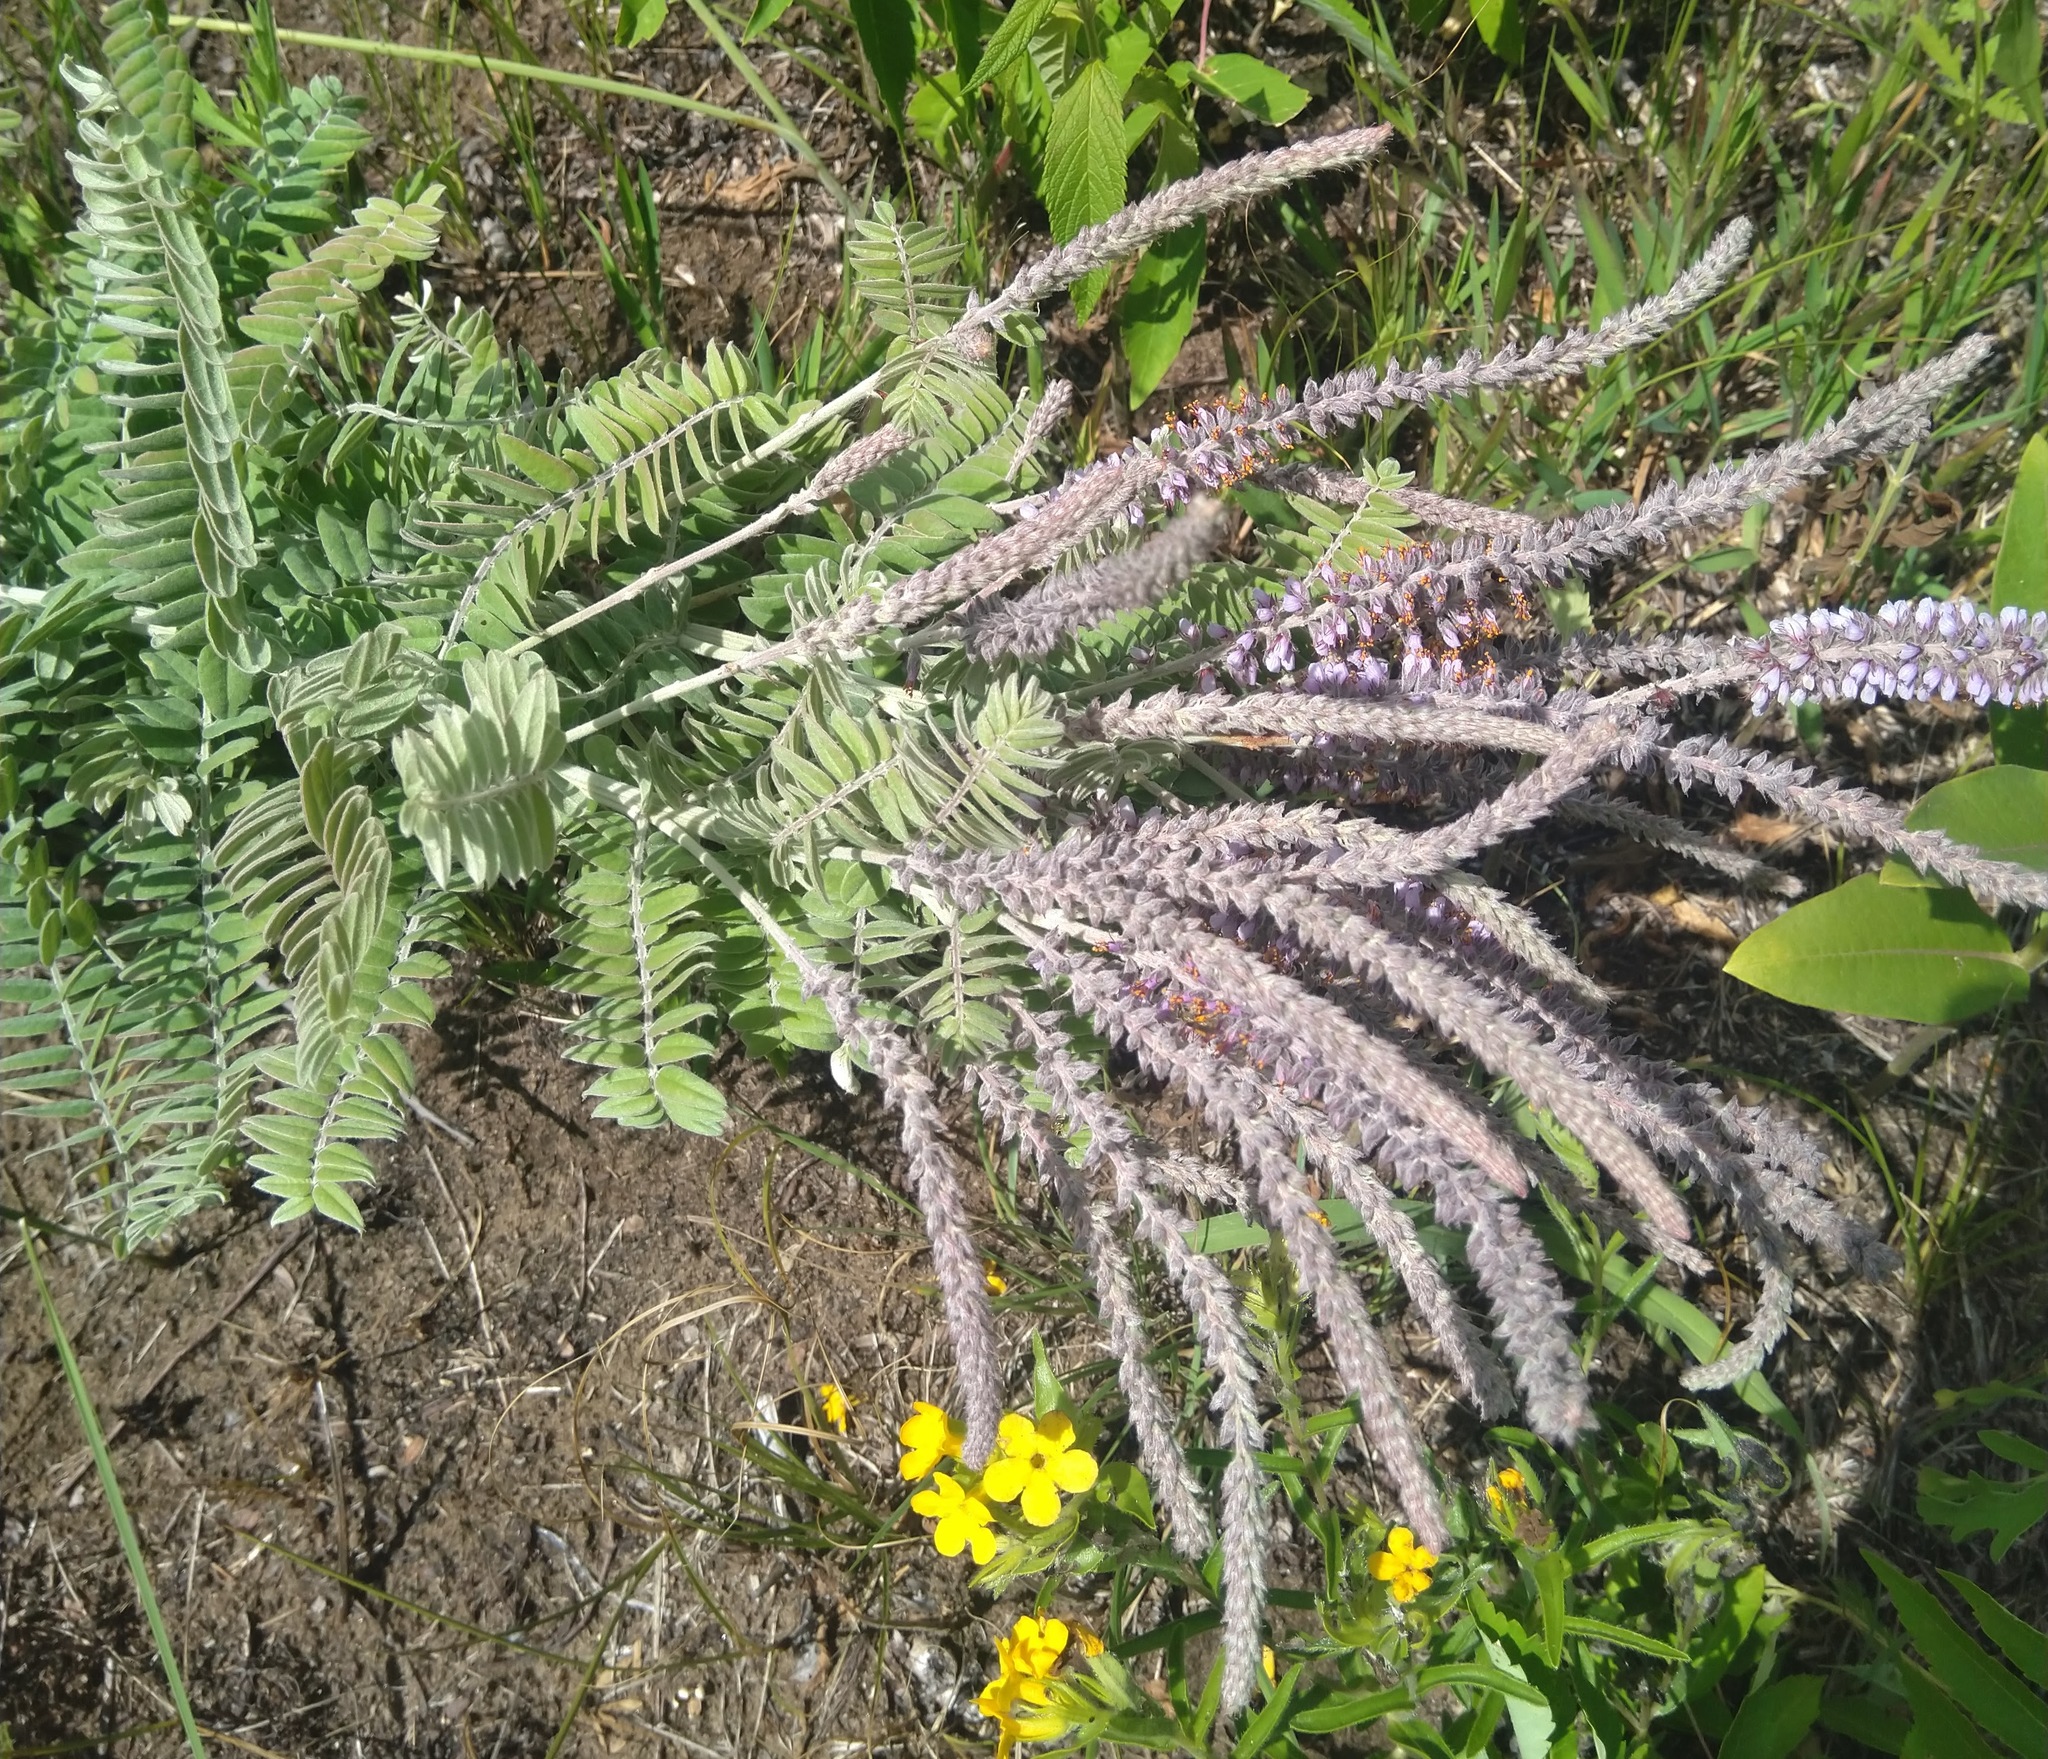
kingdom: Plantae
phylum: Tracheophyta
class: Magnoliopsida
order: Fabales
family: Fabaceae
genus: Amorpha
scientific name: Amorpha canescens
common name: Leadplant
